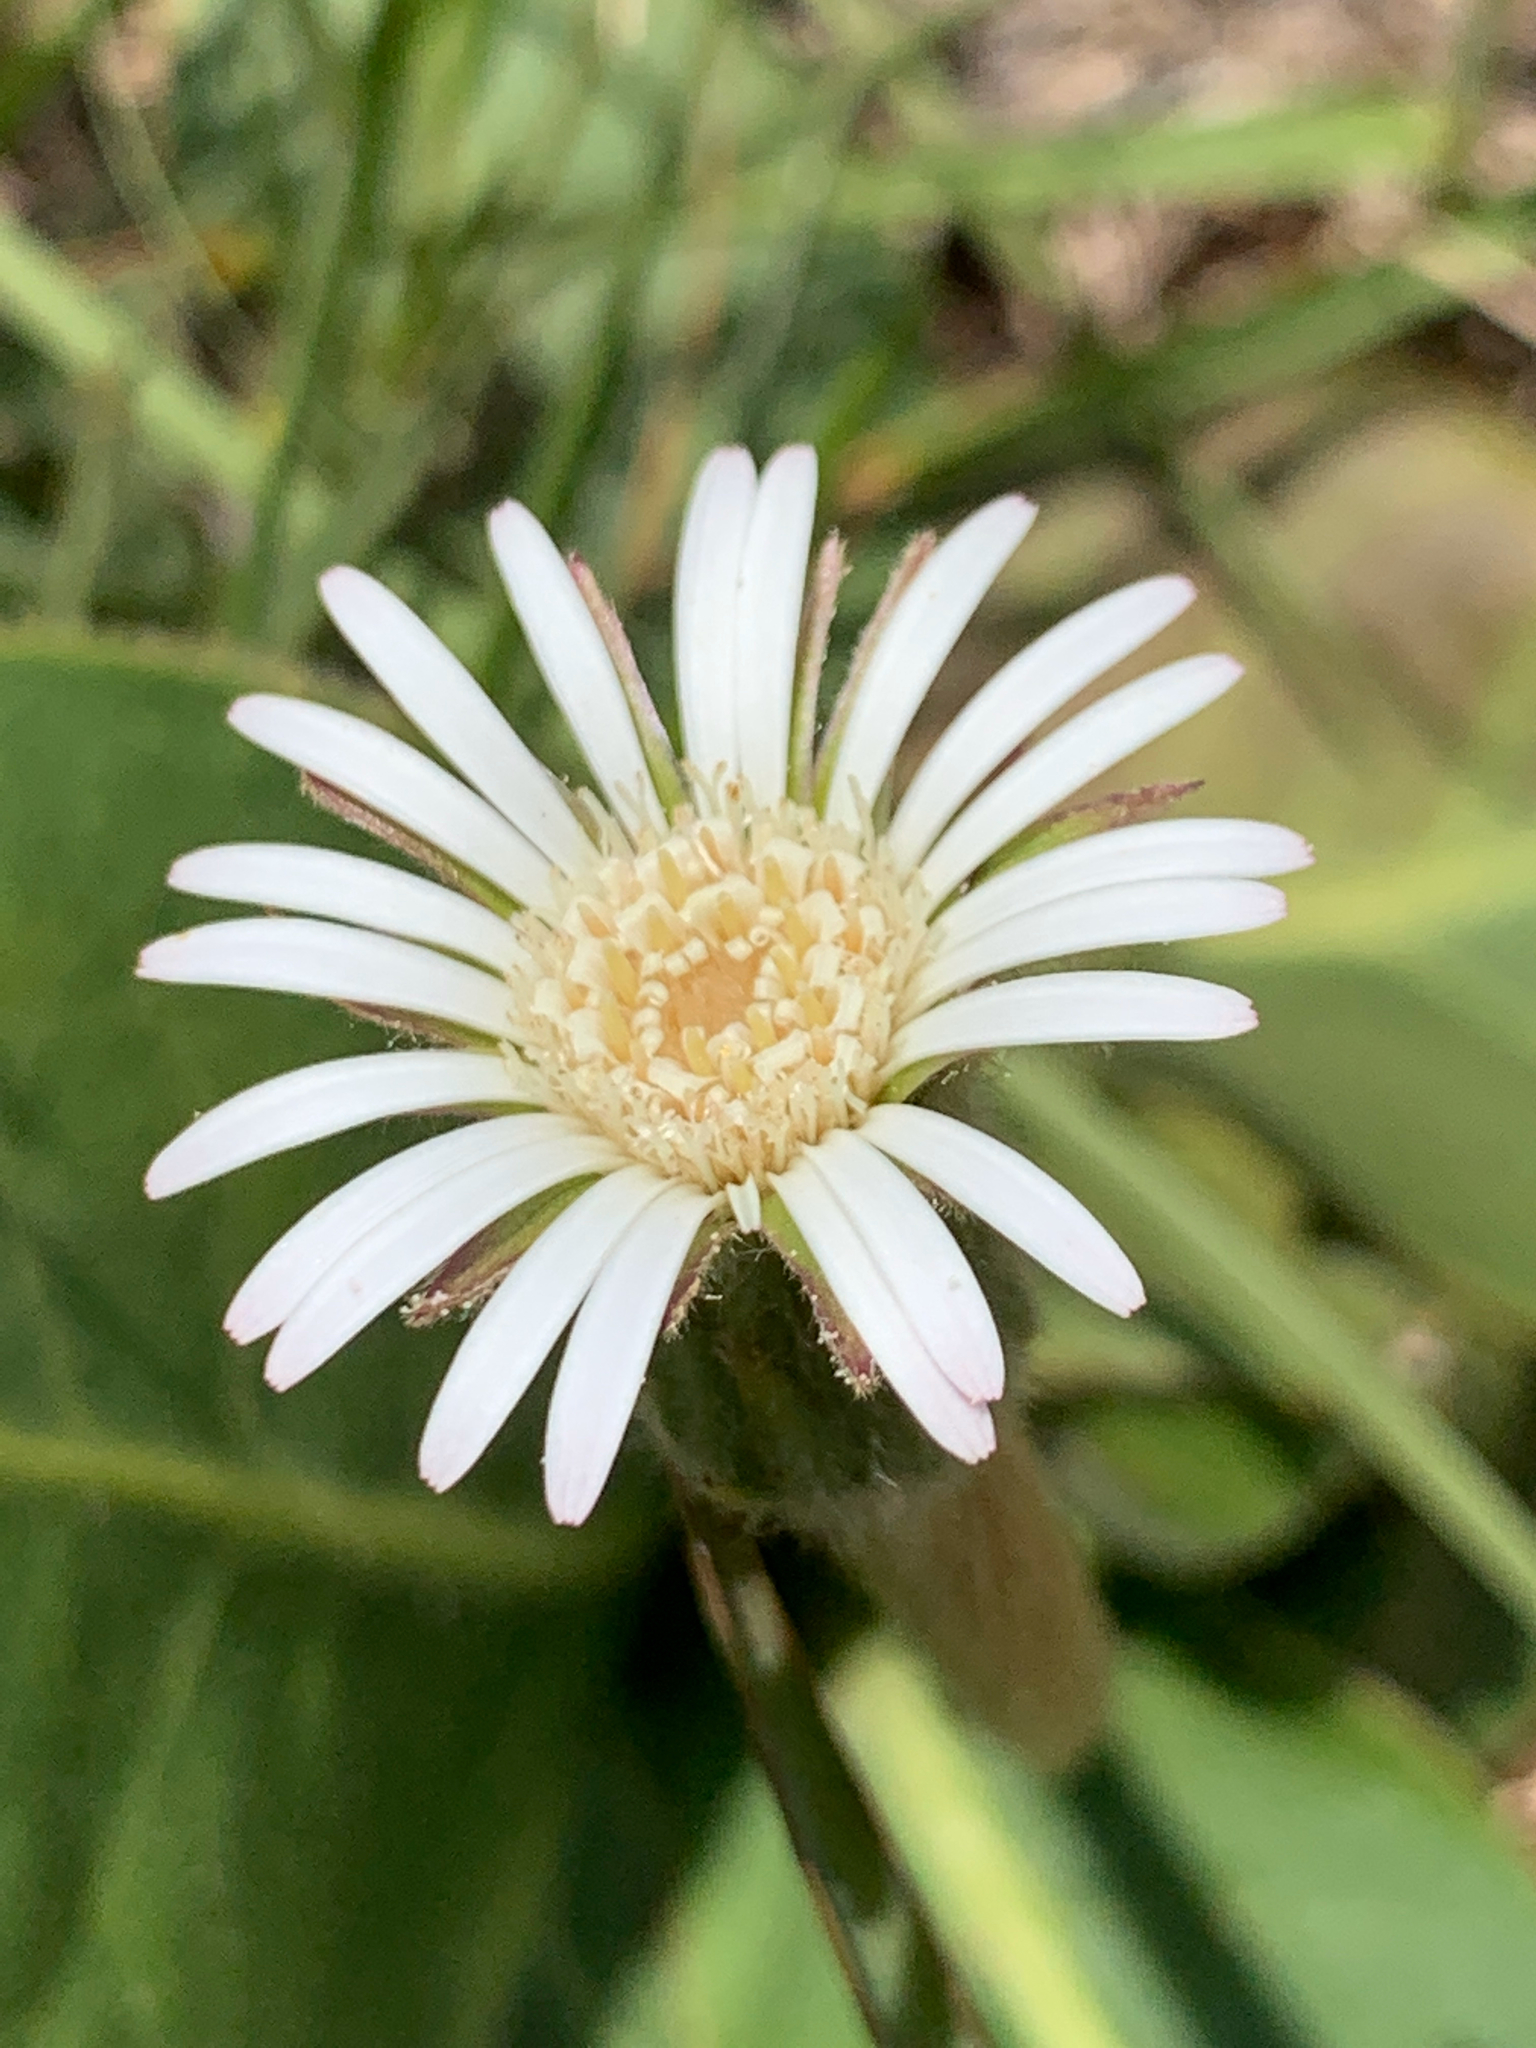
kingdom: Plantae
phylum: Tracheophyta
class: Magnoliopsida
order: Asterales
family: Asteraceae
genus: Piloselloides
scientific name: Piloselloides hirsuta
